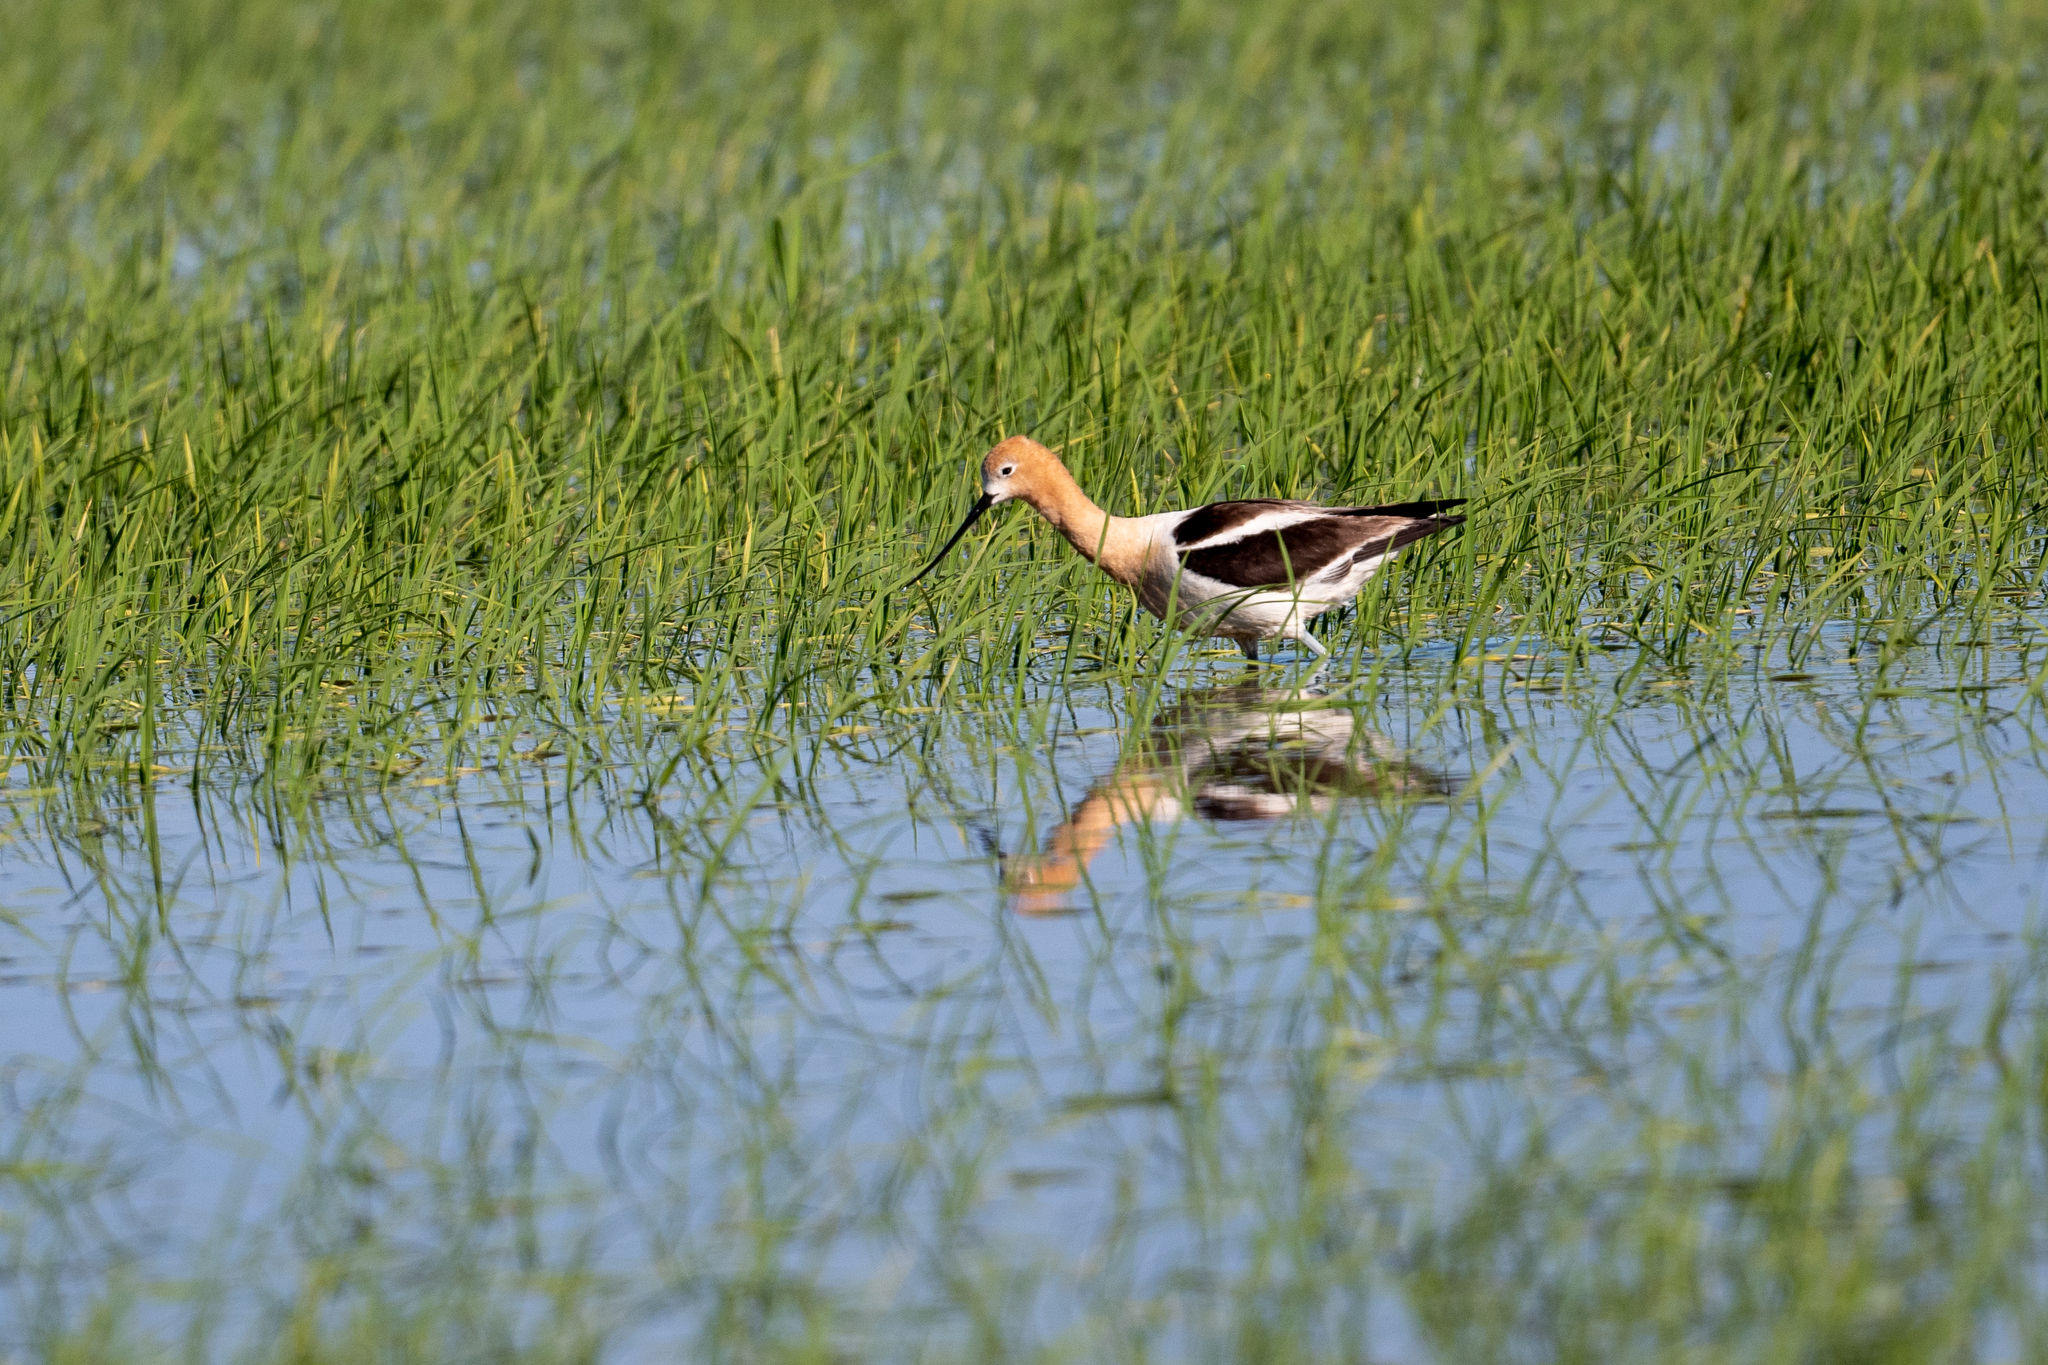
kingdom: Animalia
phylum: Chordata
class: Aves
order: Charadriiformes
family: Recurvirostridae
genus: Recurvirostra
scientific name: Recurvirostra americana
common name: American avocet
